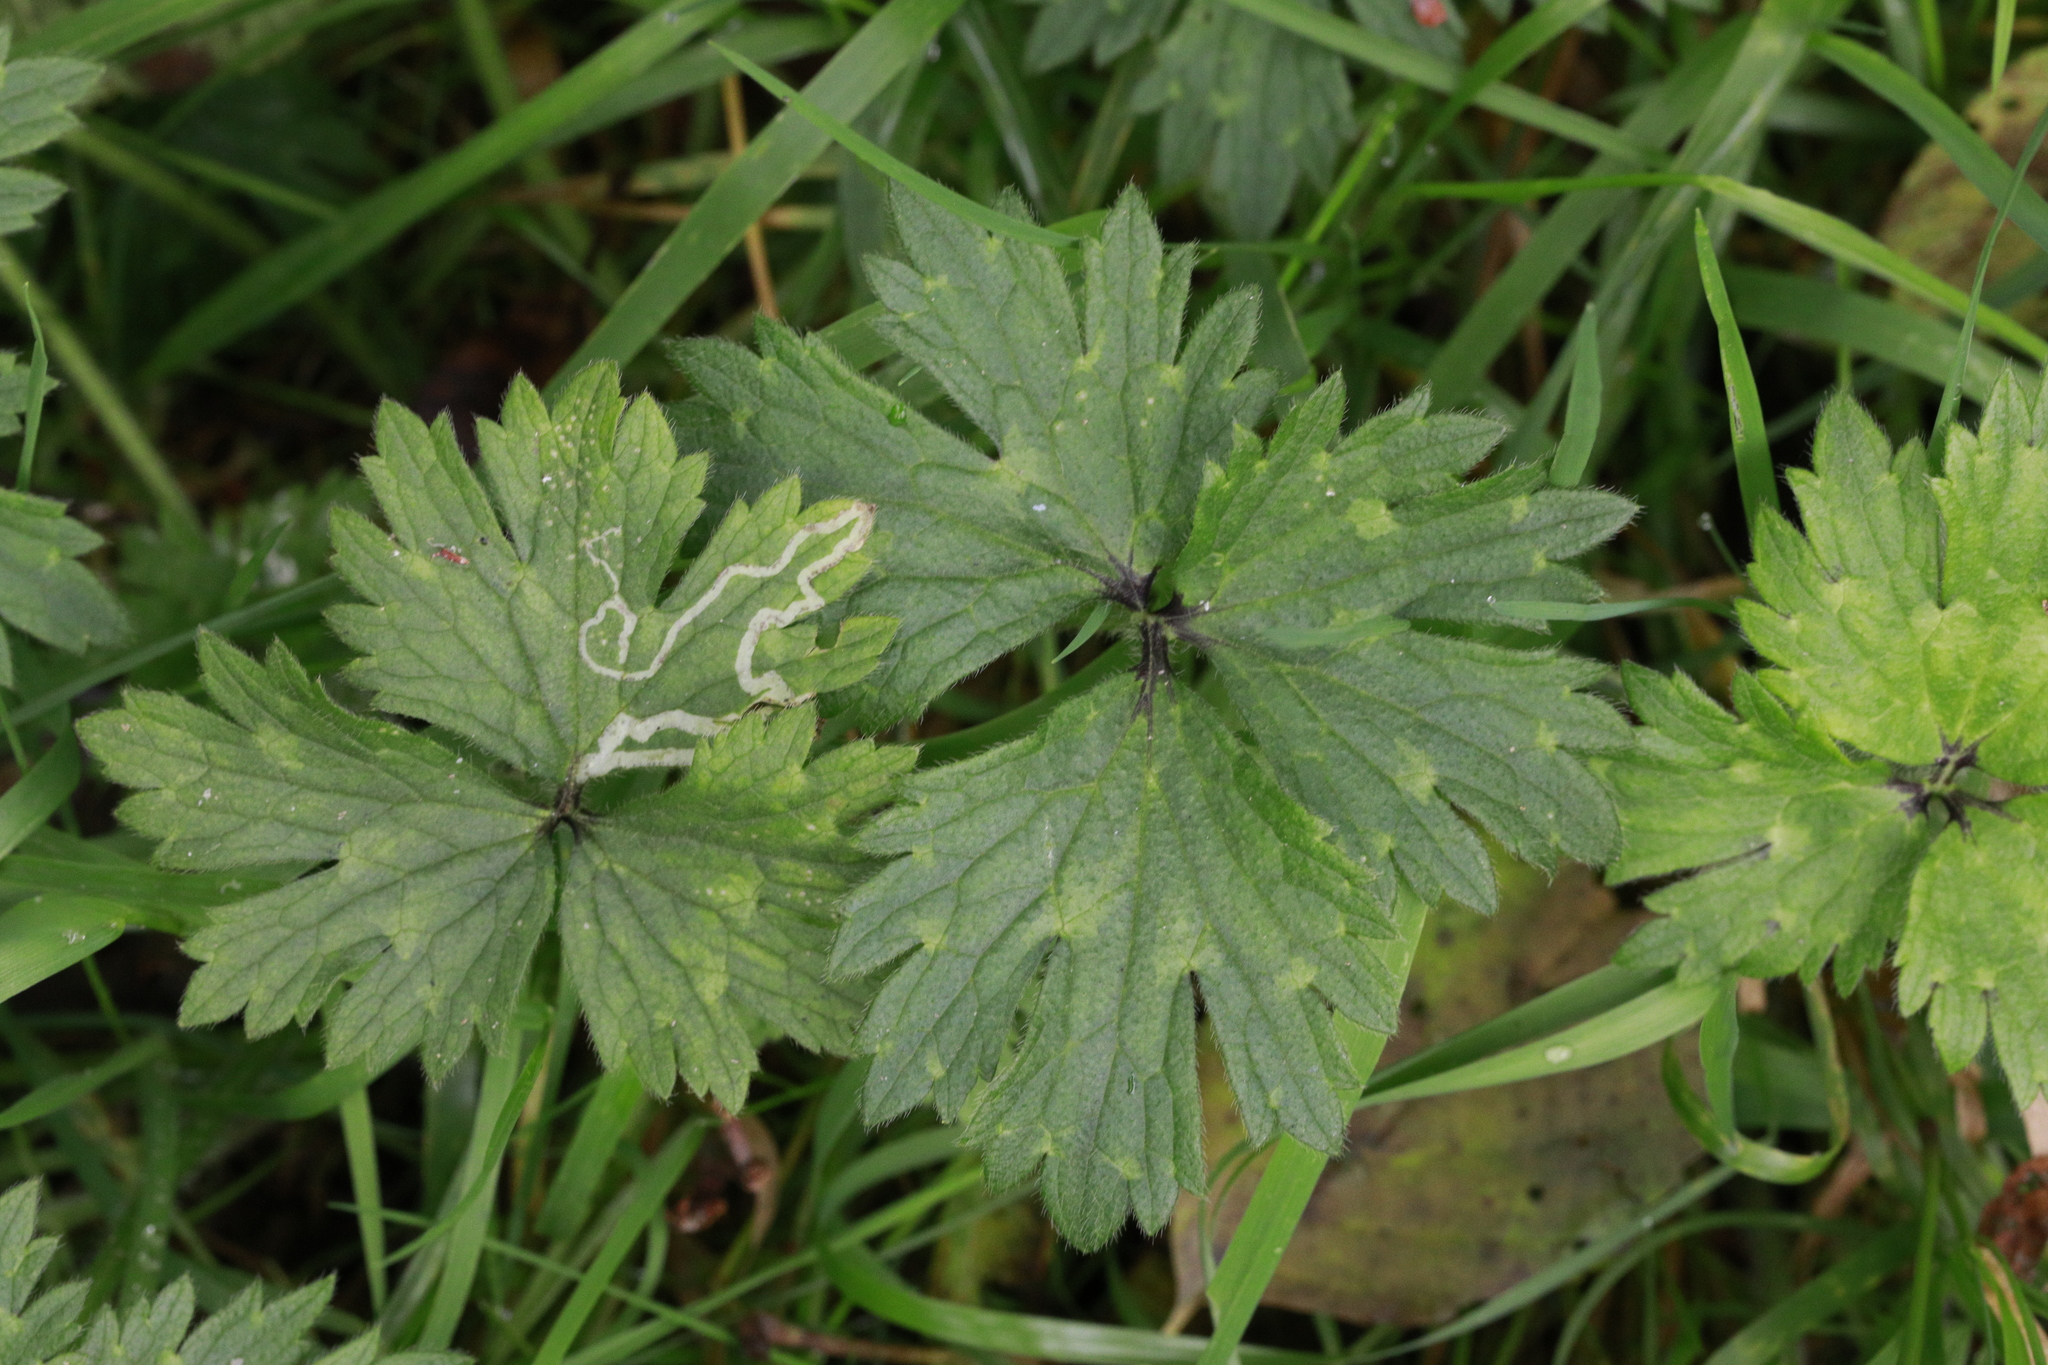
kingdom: Plantae
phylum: Tracheophyta
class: Magnoliopsida
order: Ranunculales
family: Ranunculaceae
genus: Ranunculus
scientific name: Ranunculus repens
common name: Creeping buttercup
